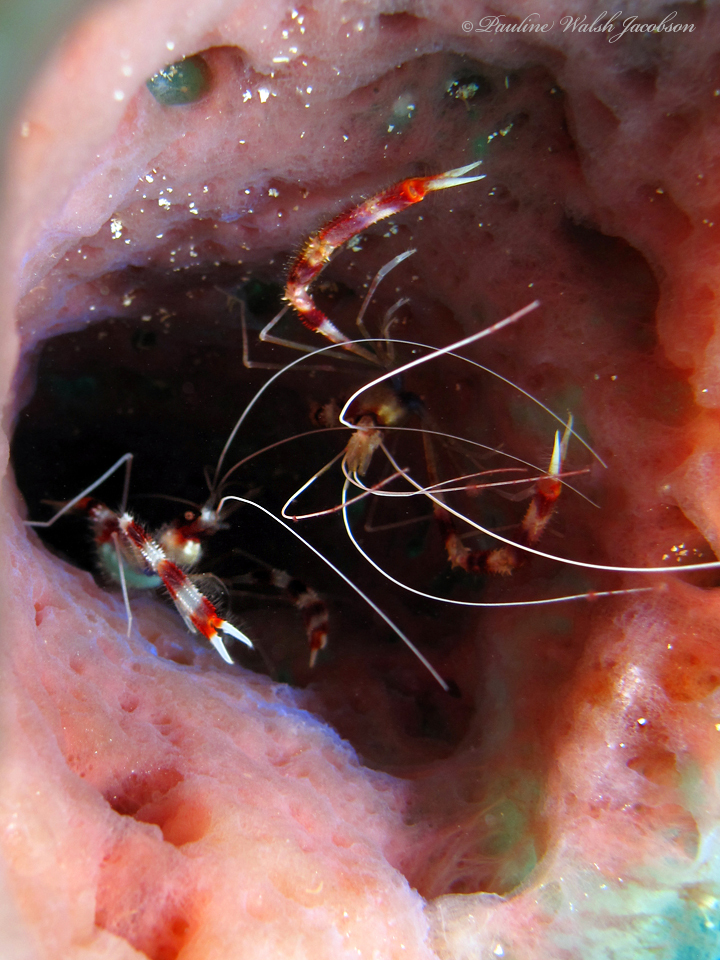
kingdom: Animalia
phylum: Arthropoda
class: Malacostraca
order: Decapoda
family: Stenopodidae
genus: Stenopus
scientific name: Stenopus hispidus
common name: Banded coral shrimp
